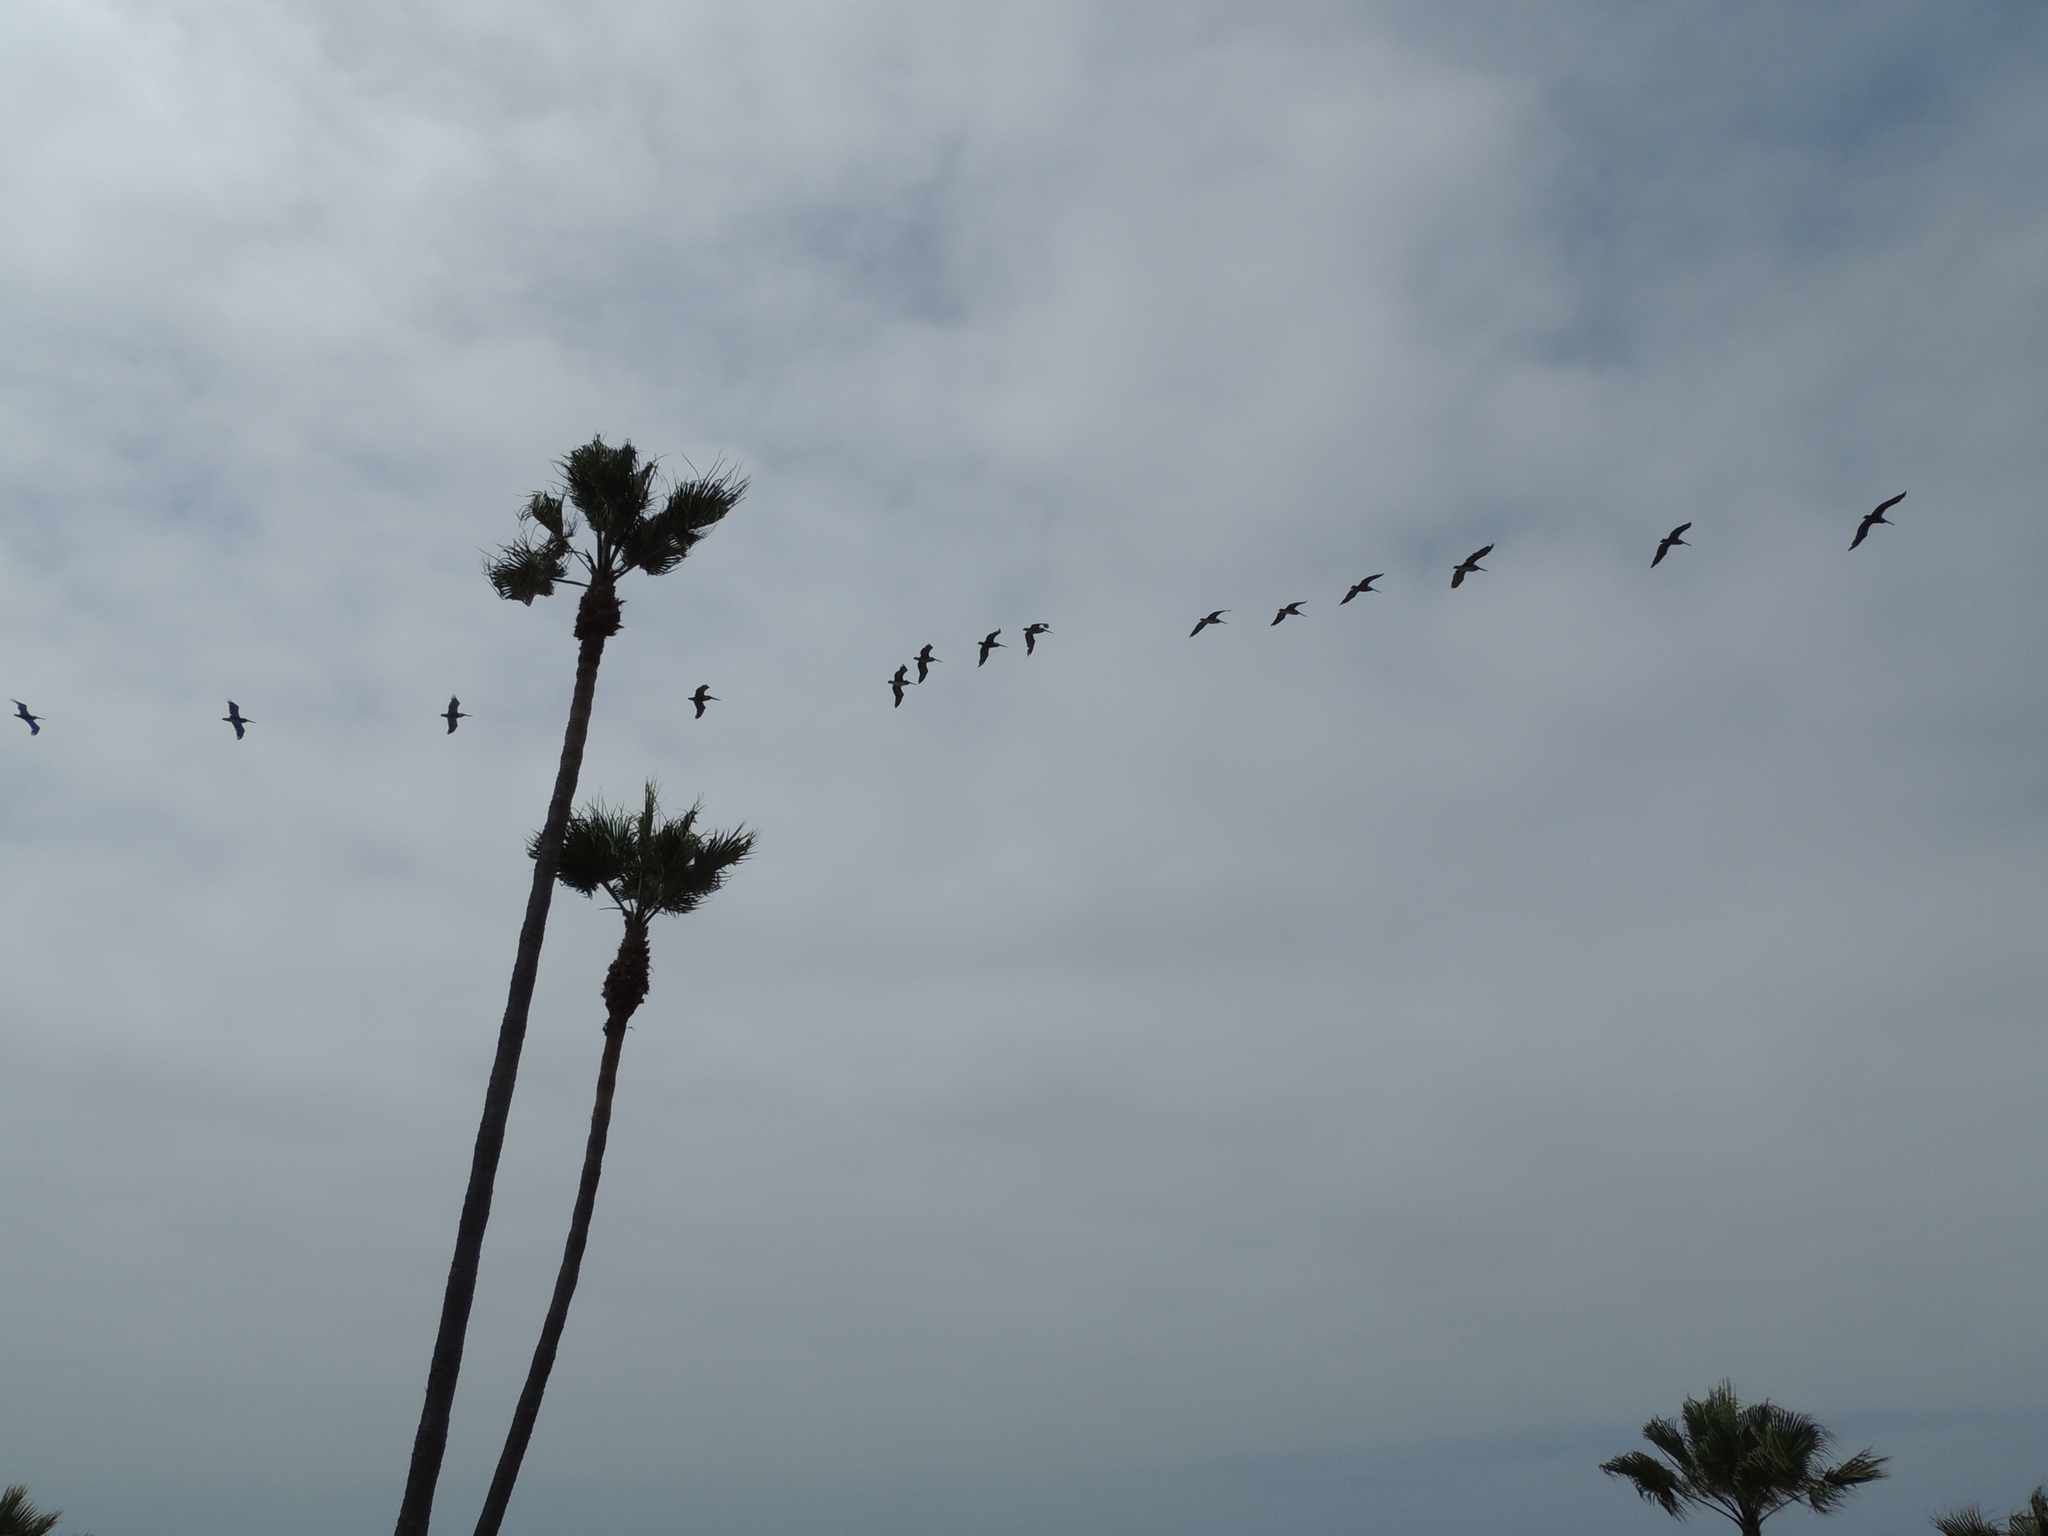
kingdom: Animalia
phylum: Chordata
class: Aves
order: Pelecaniformes
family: Pelecanidae
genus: Pelecanus
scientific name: Pelecanus occidentalis
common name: Brown pelican
